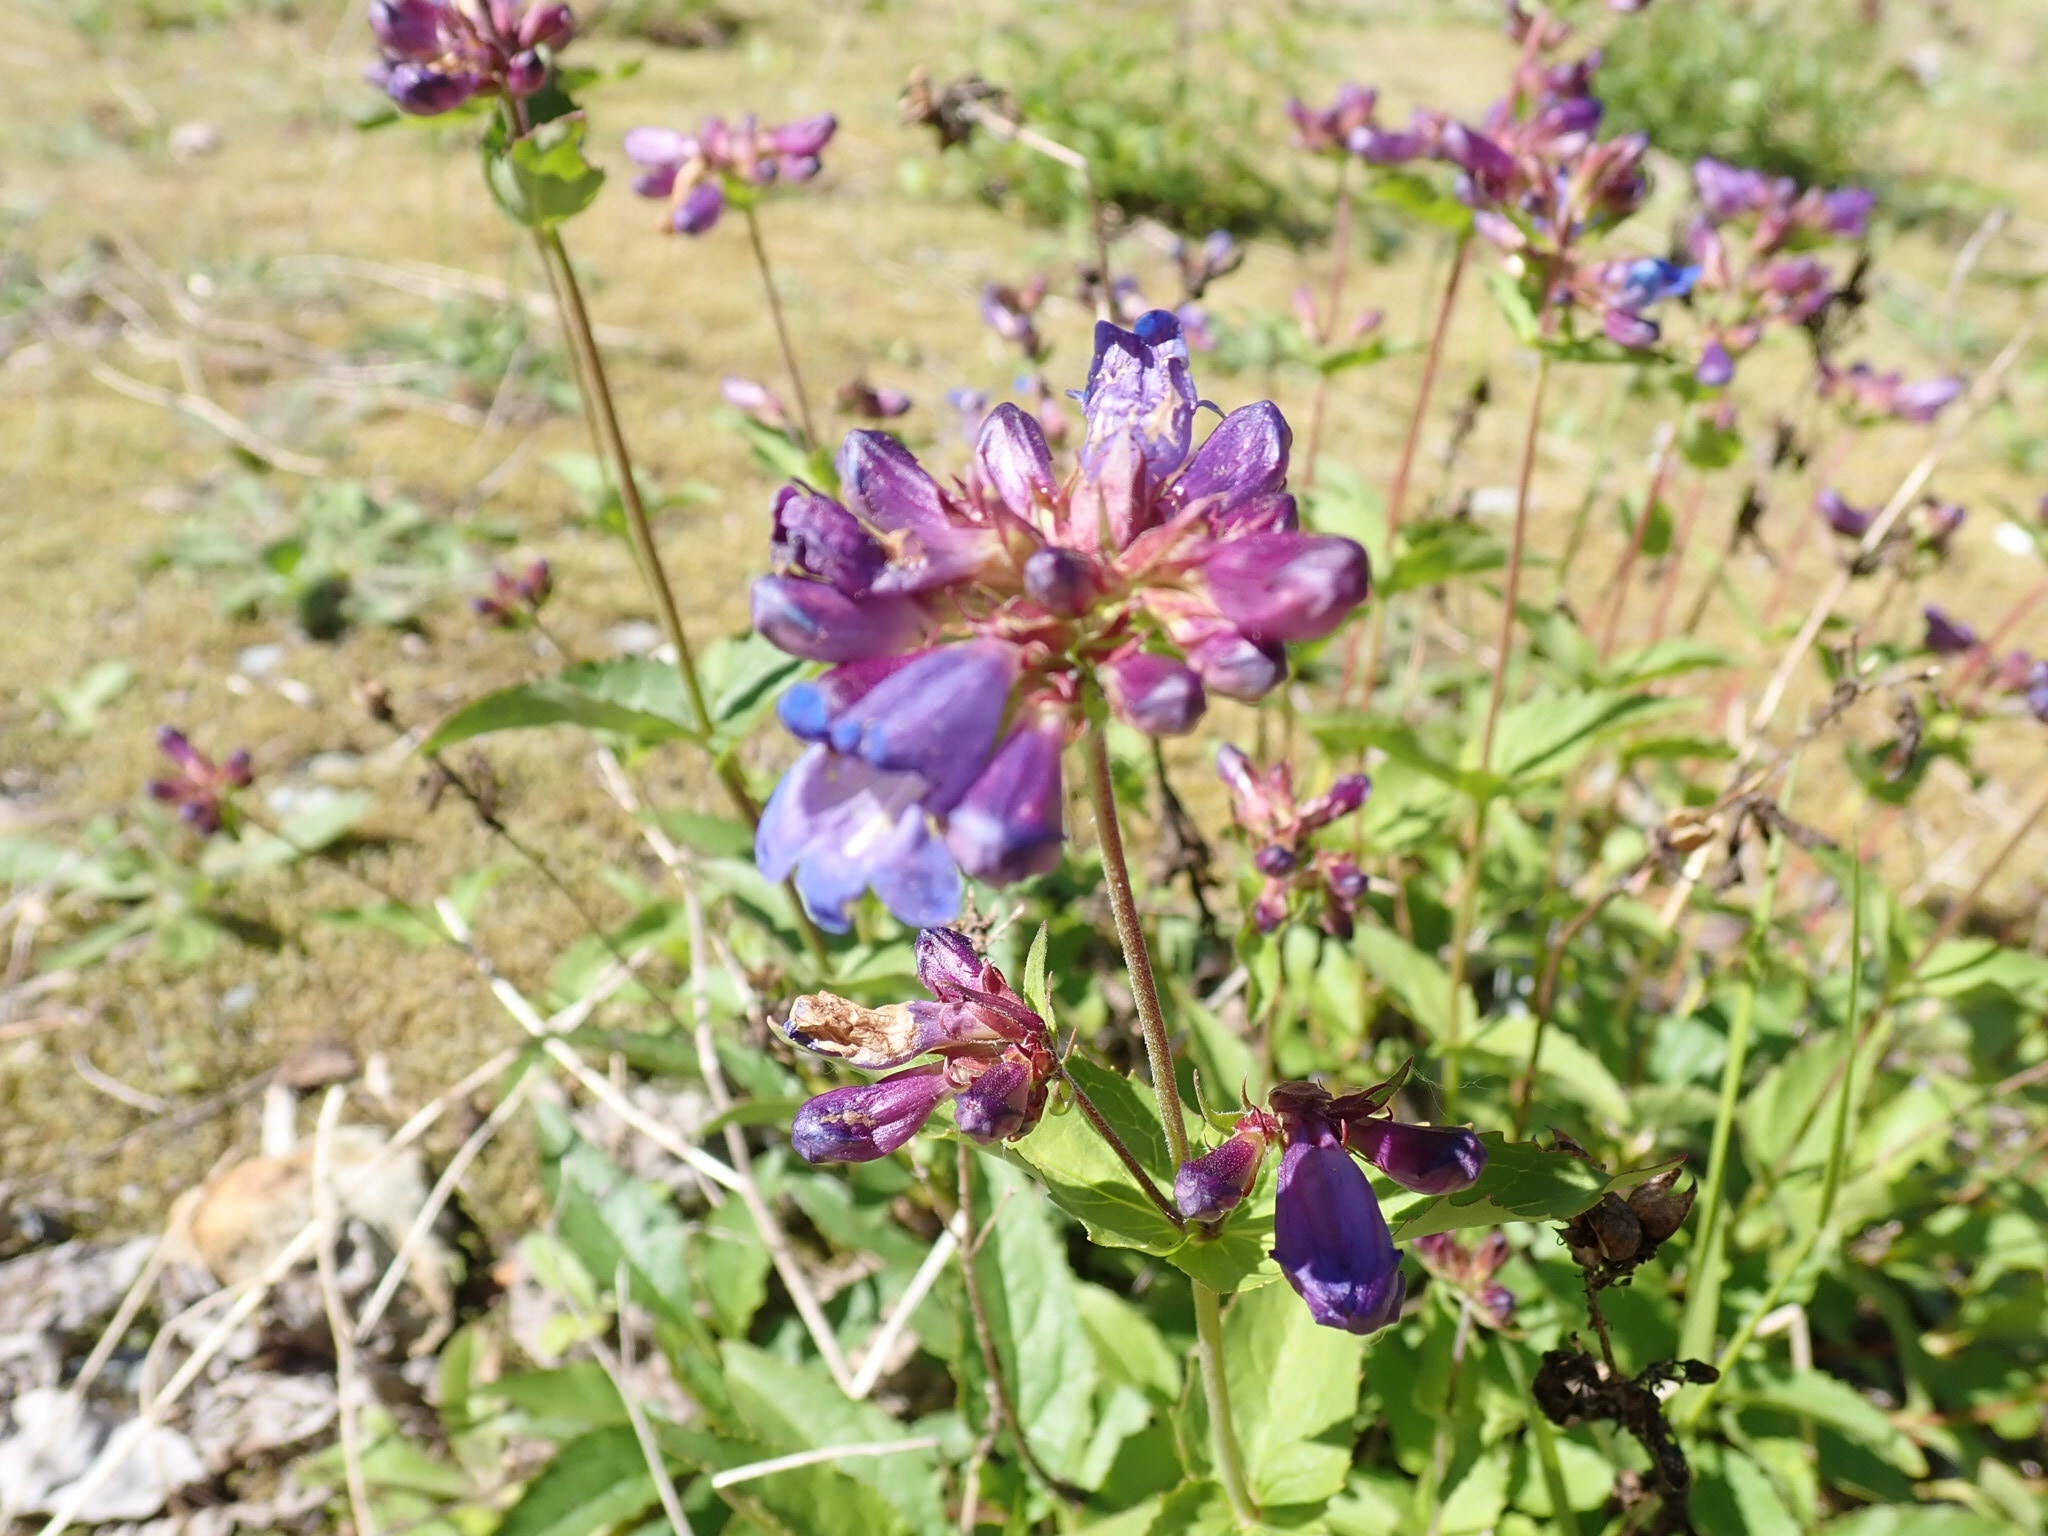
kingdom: Plantae
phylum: Tracheophyta
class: Magnoliopsida
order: Lamiales
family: Plantaginaceae
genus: Penstemon
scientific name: Penstemon serrulatus
